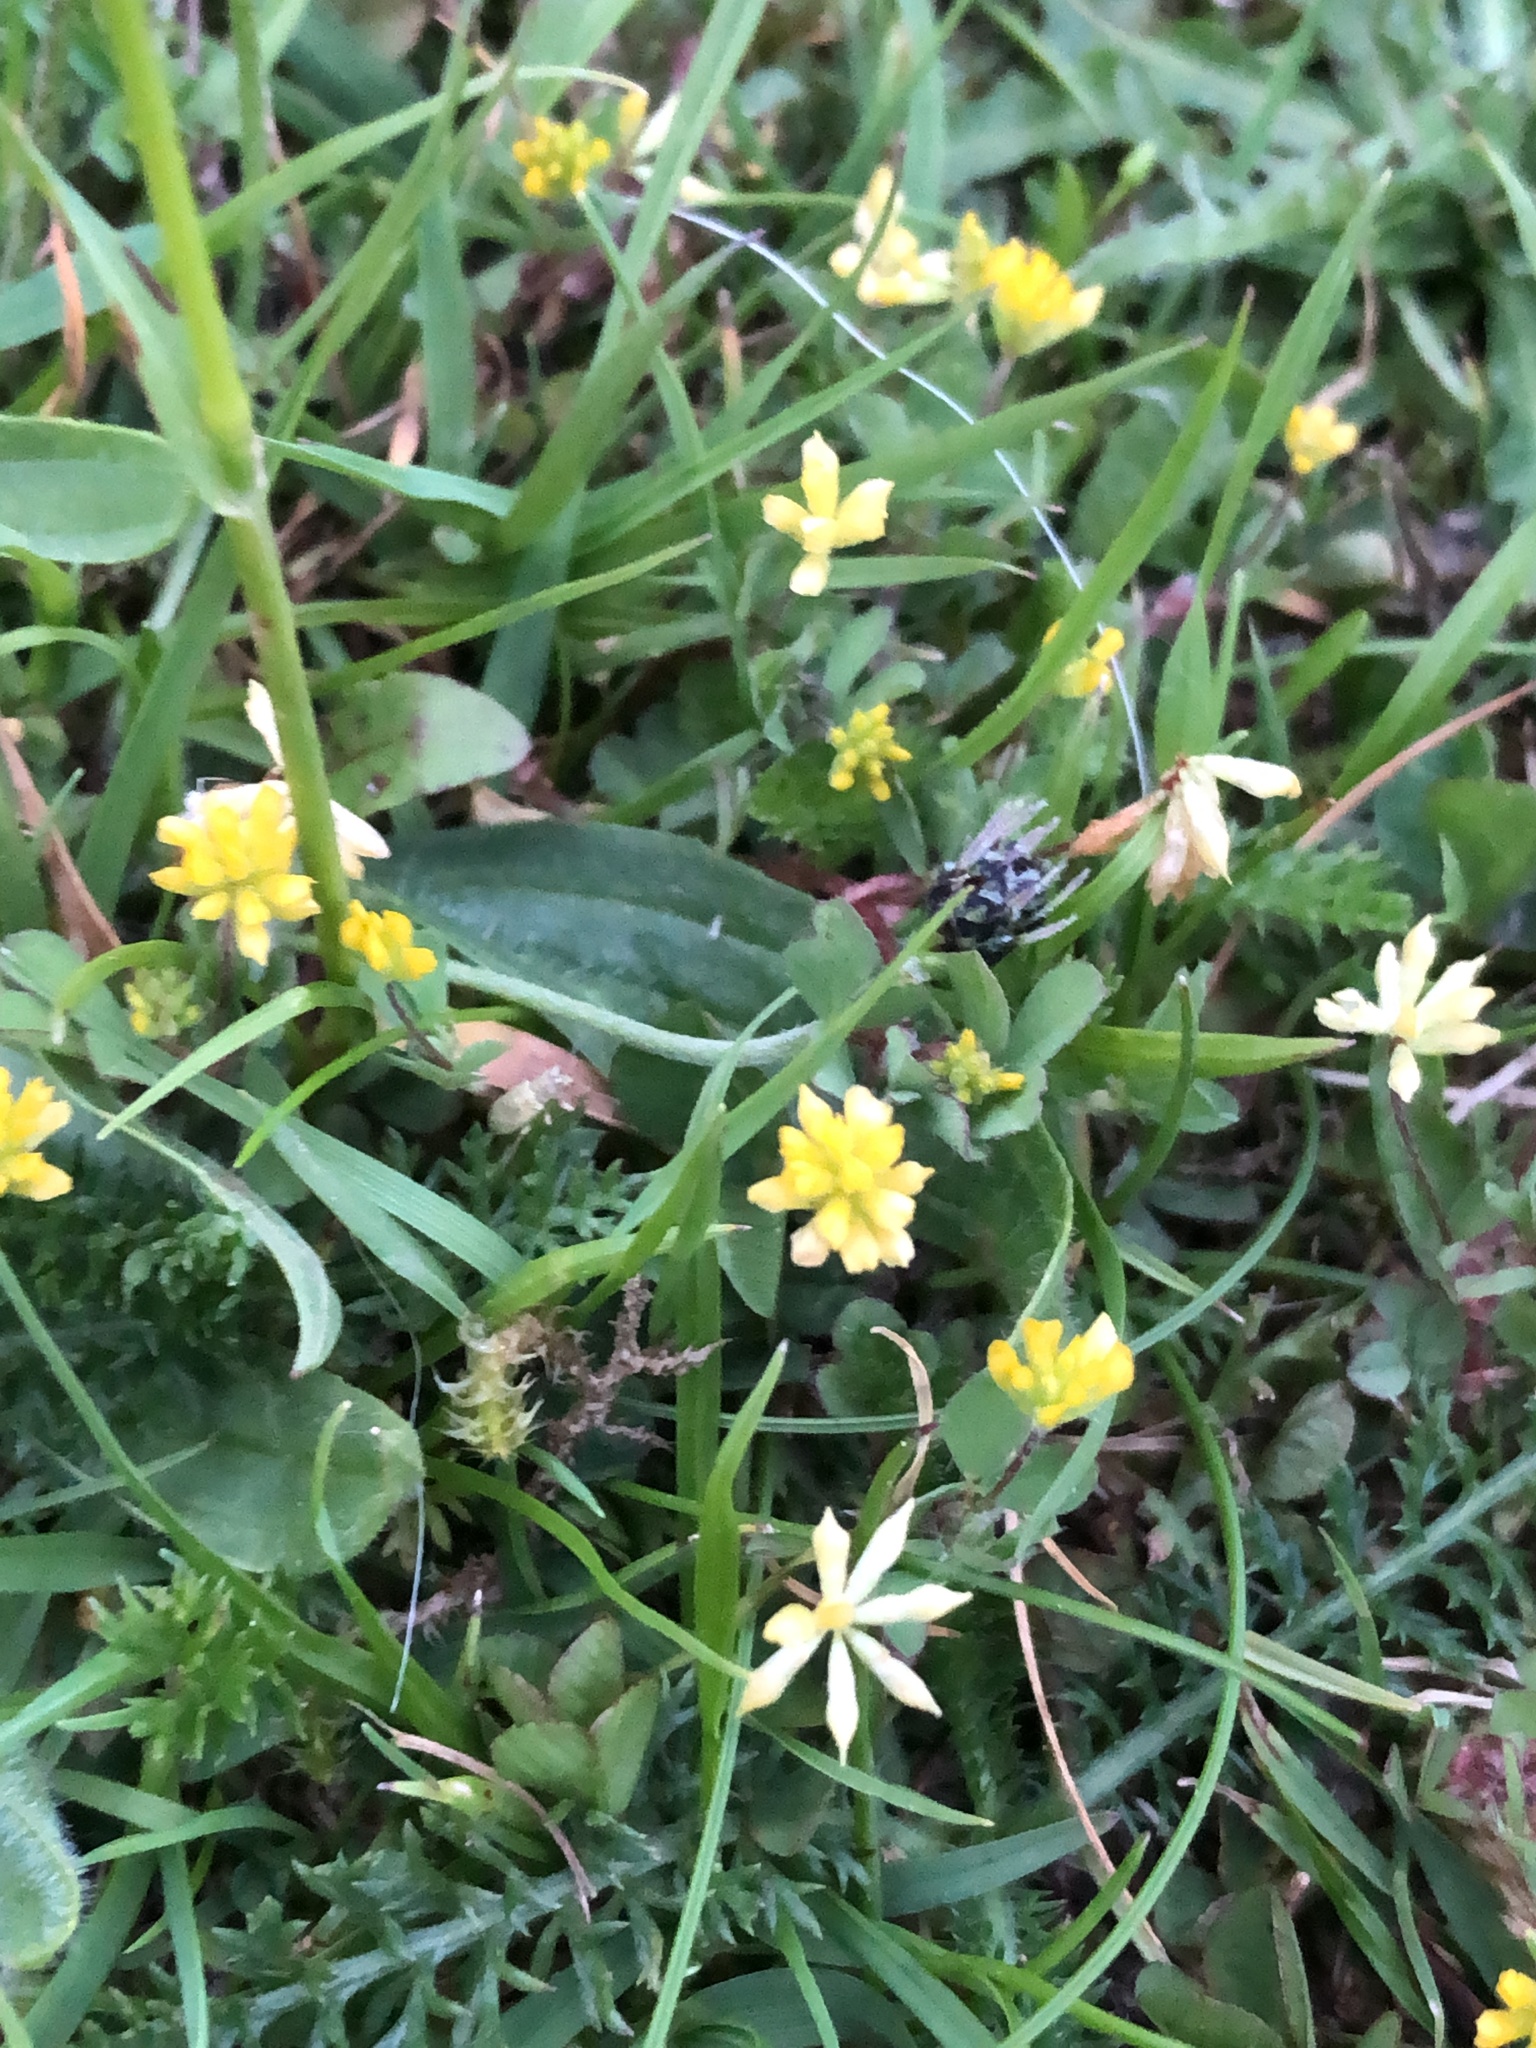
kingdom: Plantae
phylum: Tracheophyta
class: Magnoliopsida
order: Fabales
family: Fabaceae
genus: Trifolium
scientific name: Trifolium dubium
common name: Suckling clover
